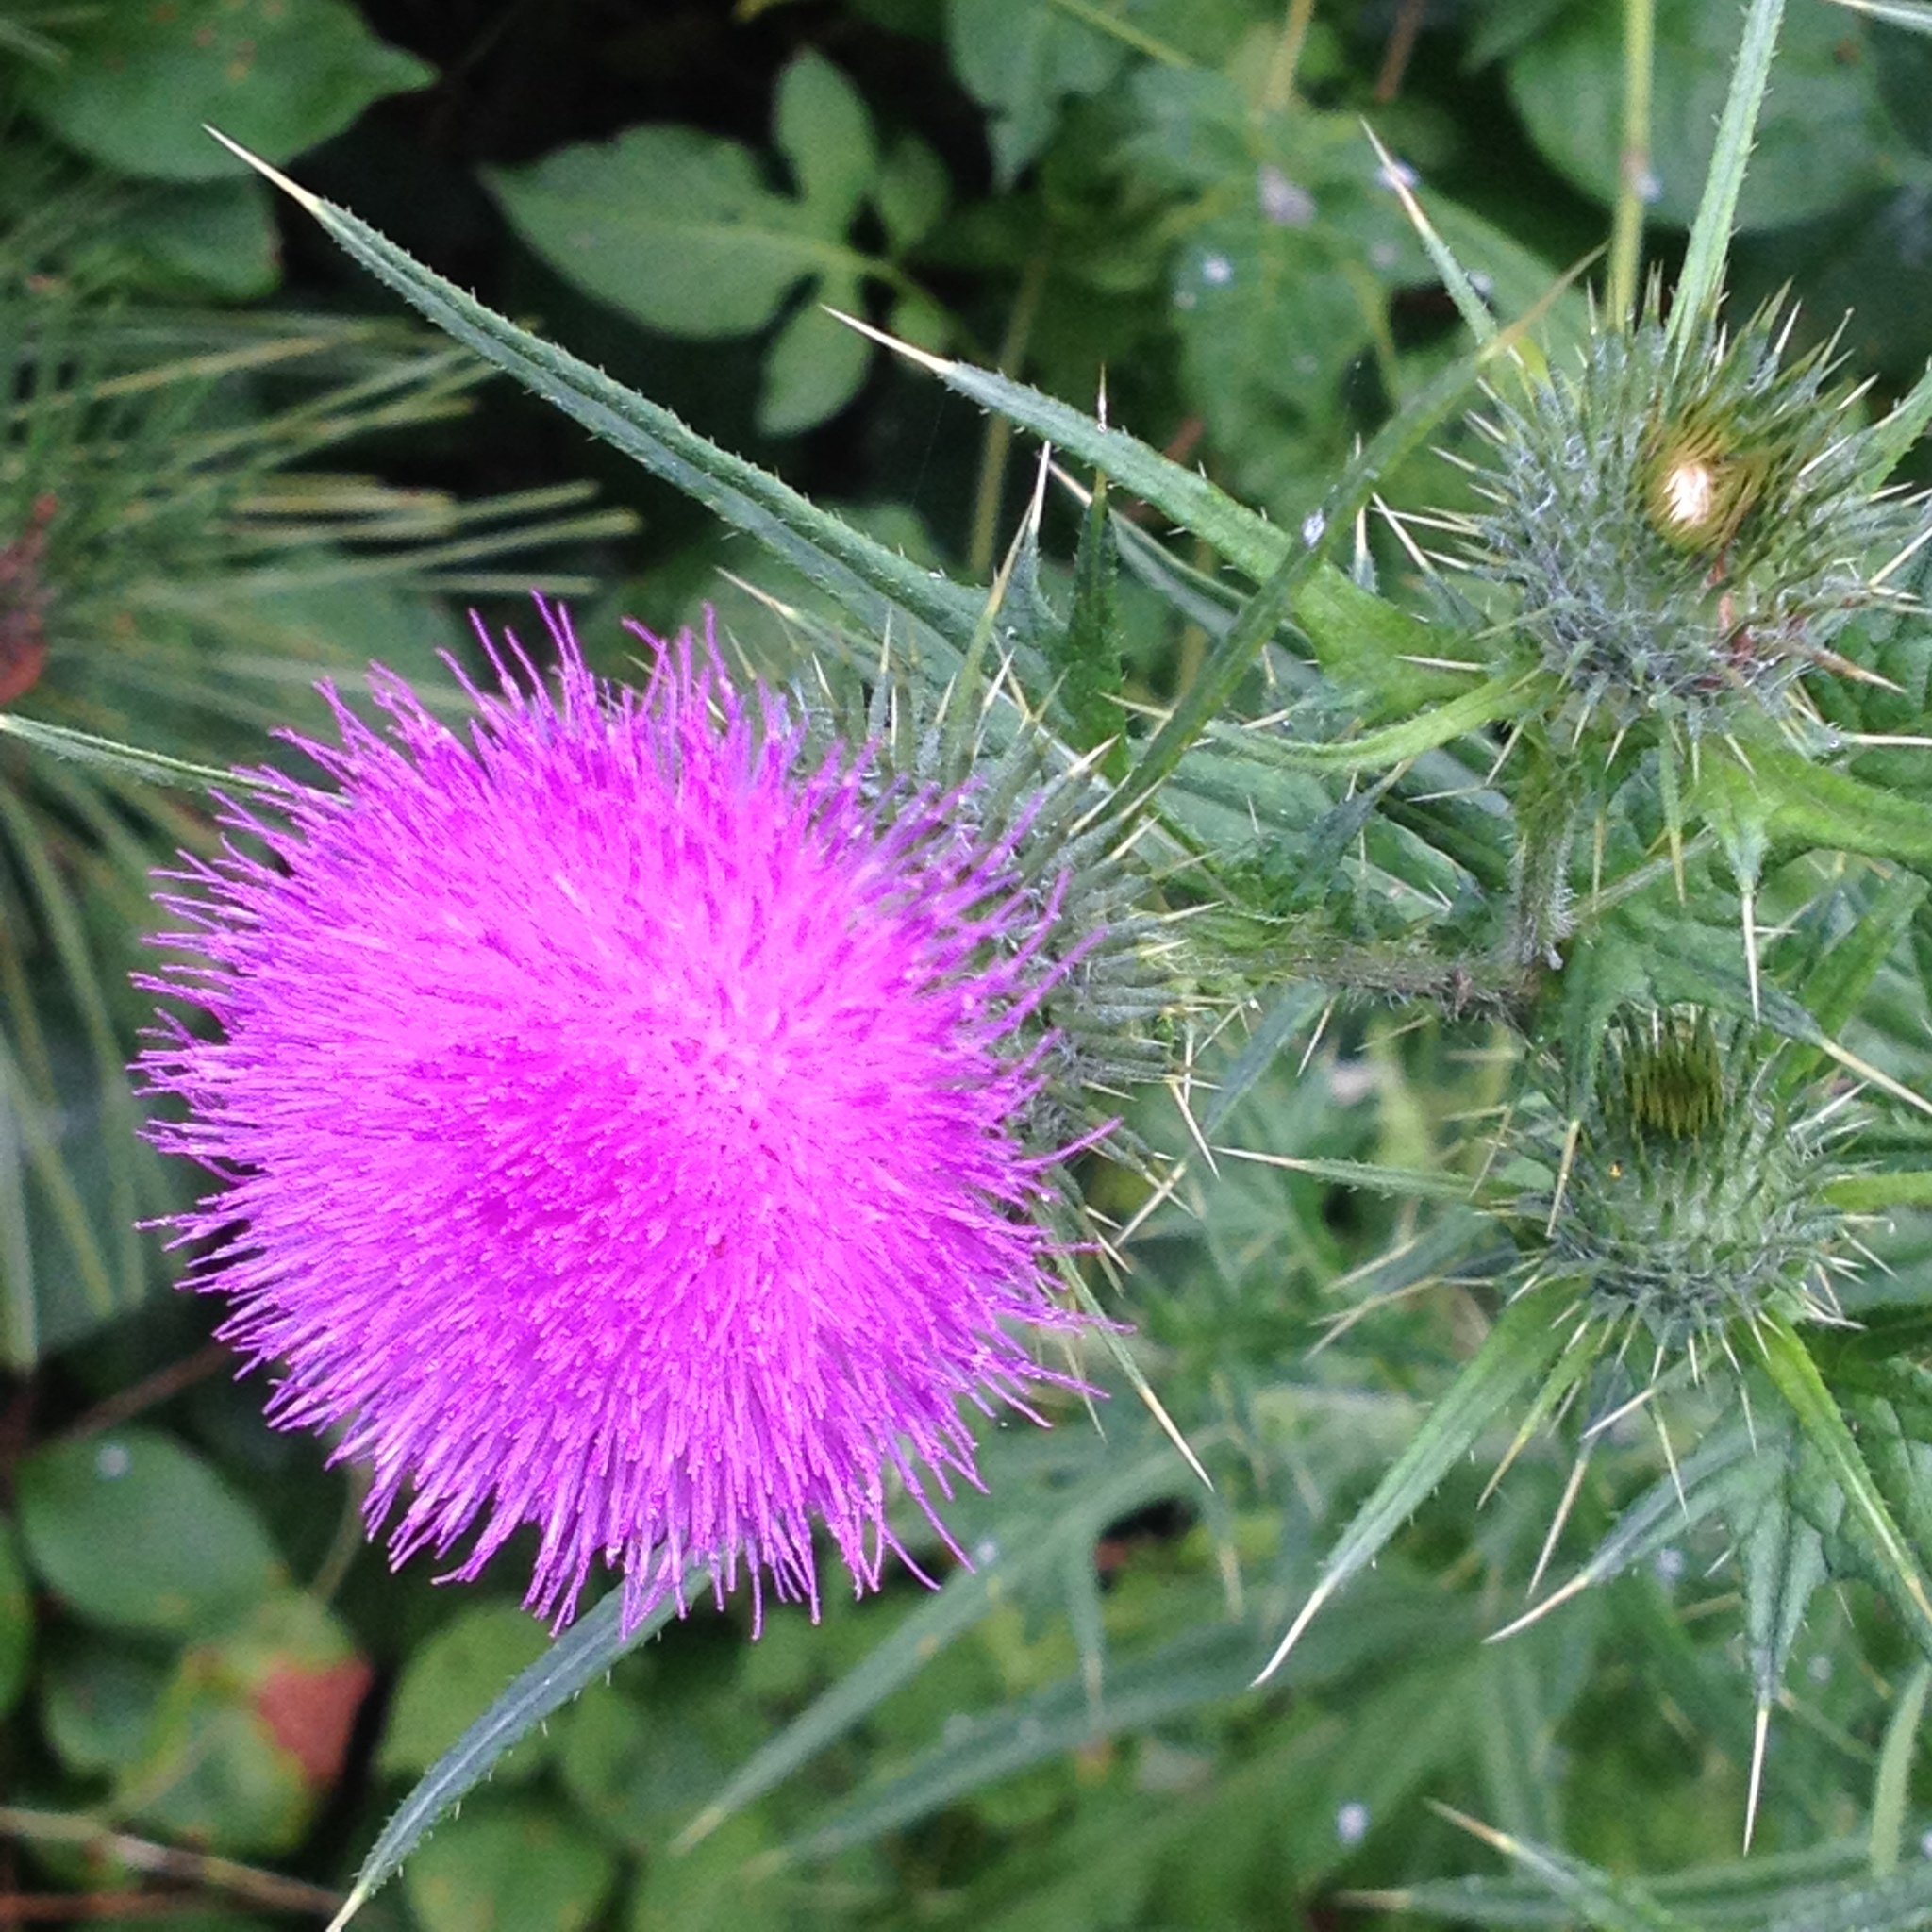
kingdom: Plantae
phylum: Tracheophyta
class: Magnoliopsida
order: Asterales
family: Asteraceae
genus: Cirsium
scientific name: Cirsium vulgare
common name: Bull thistle
